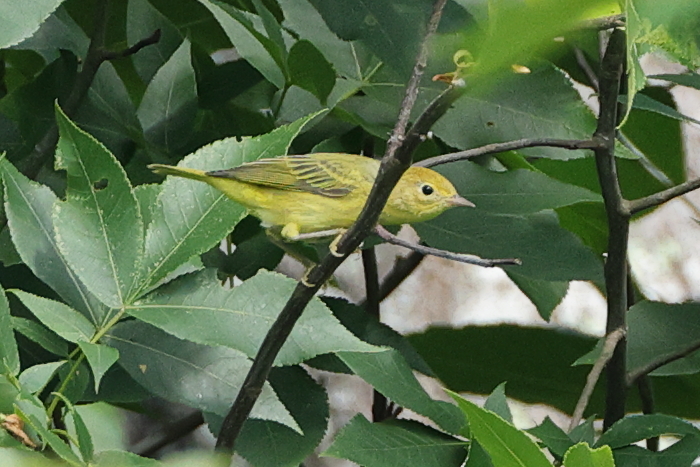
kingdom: Animalia
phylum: Chordata
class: Aves
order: Passeriformes
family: Parulidae
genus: Setophaga
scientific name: Setophaga petechia
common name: Yellow warbler
